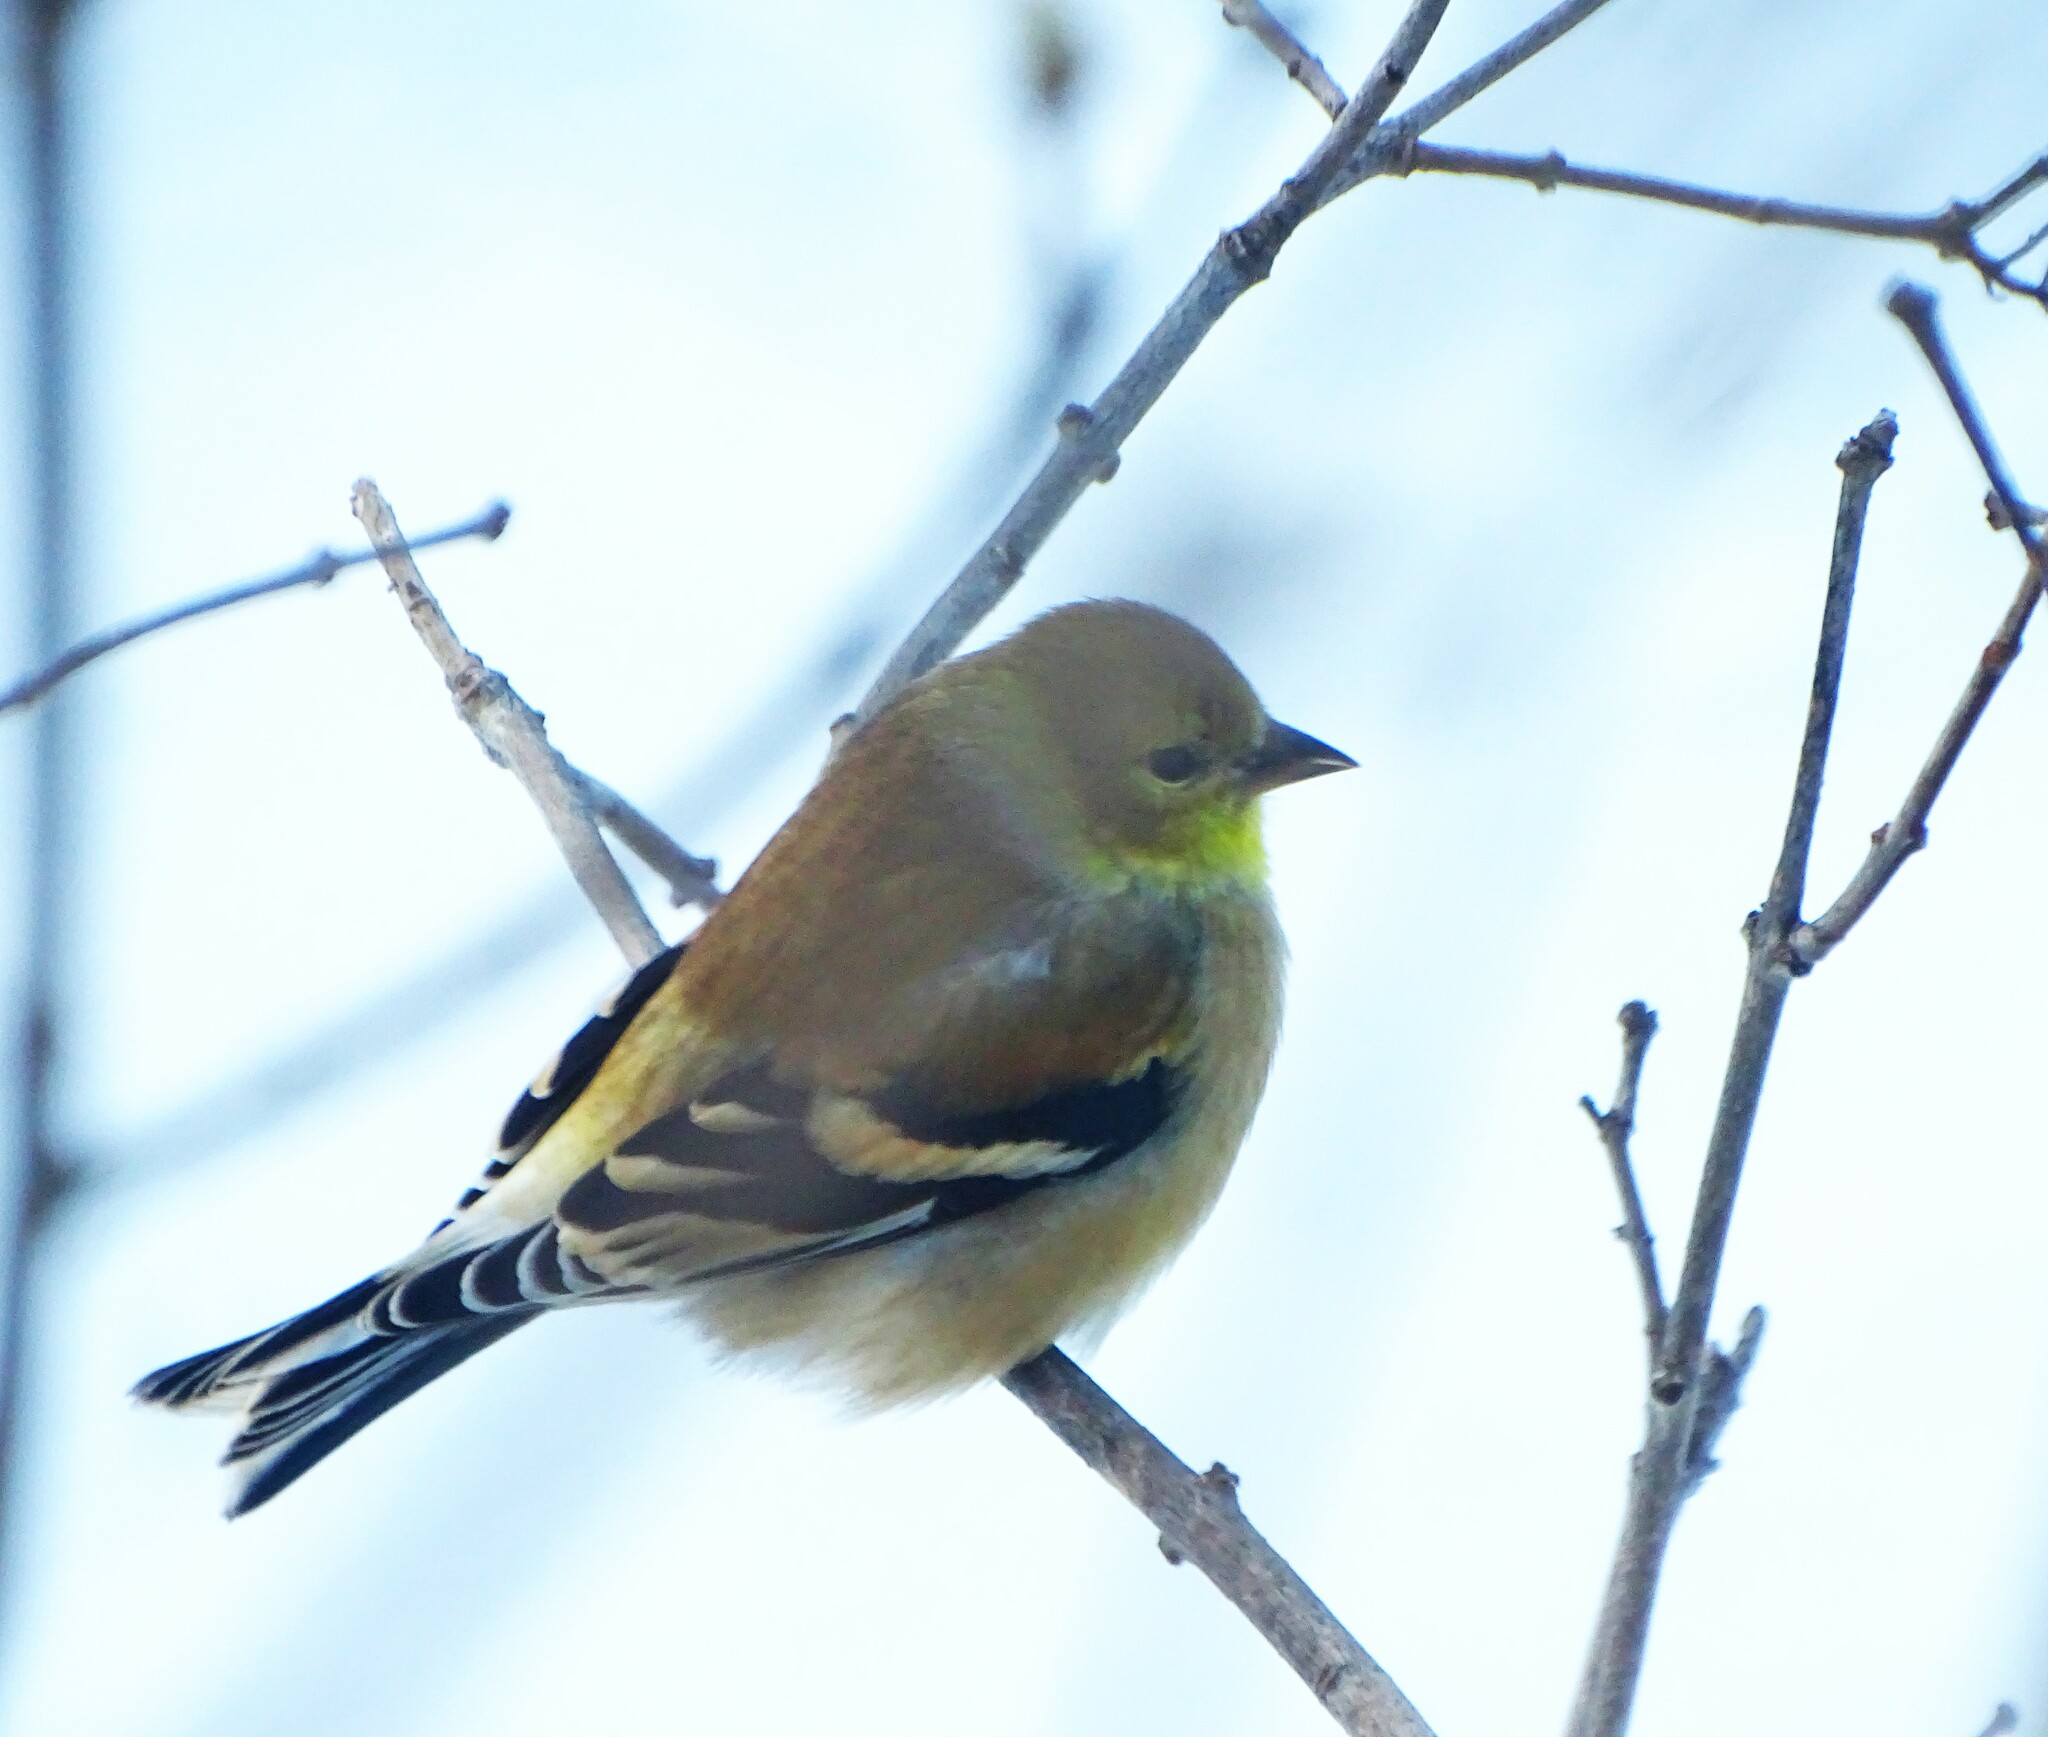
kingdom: Animalia
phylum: Chordata
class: Aves
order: Passeriformes
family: Fringillidae
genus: Spinus
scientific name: Spinus tristis
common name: American goldfinch
